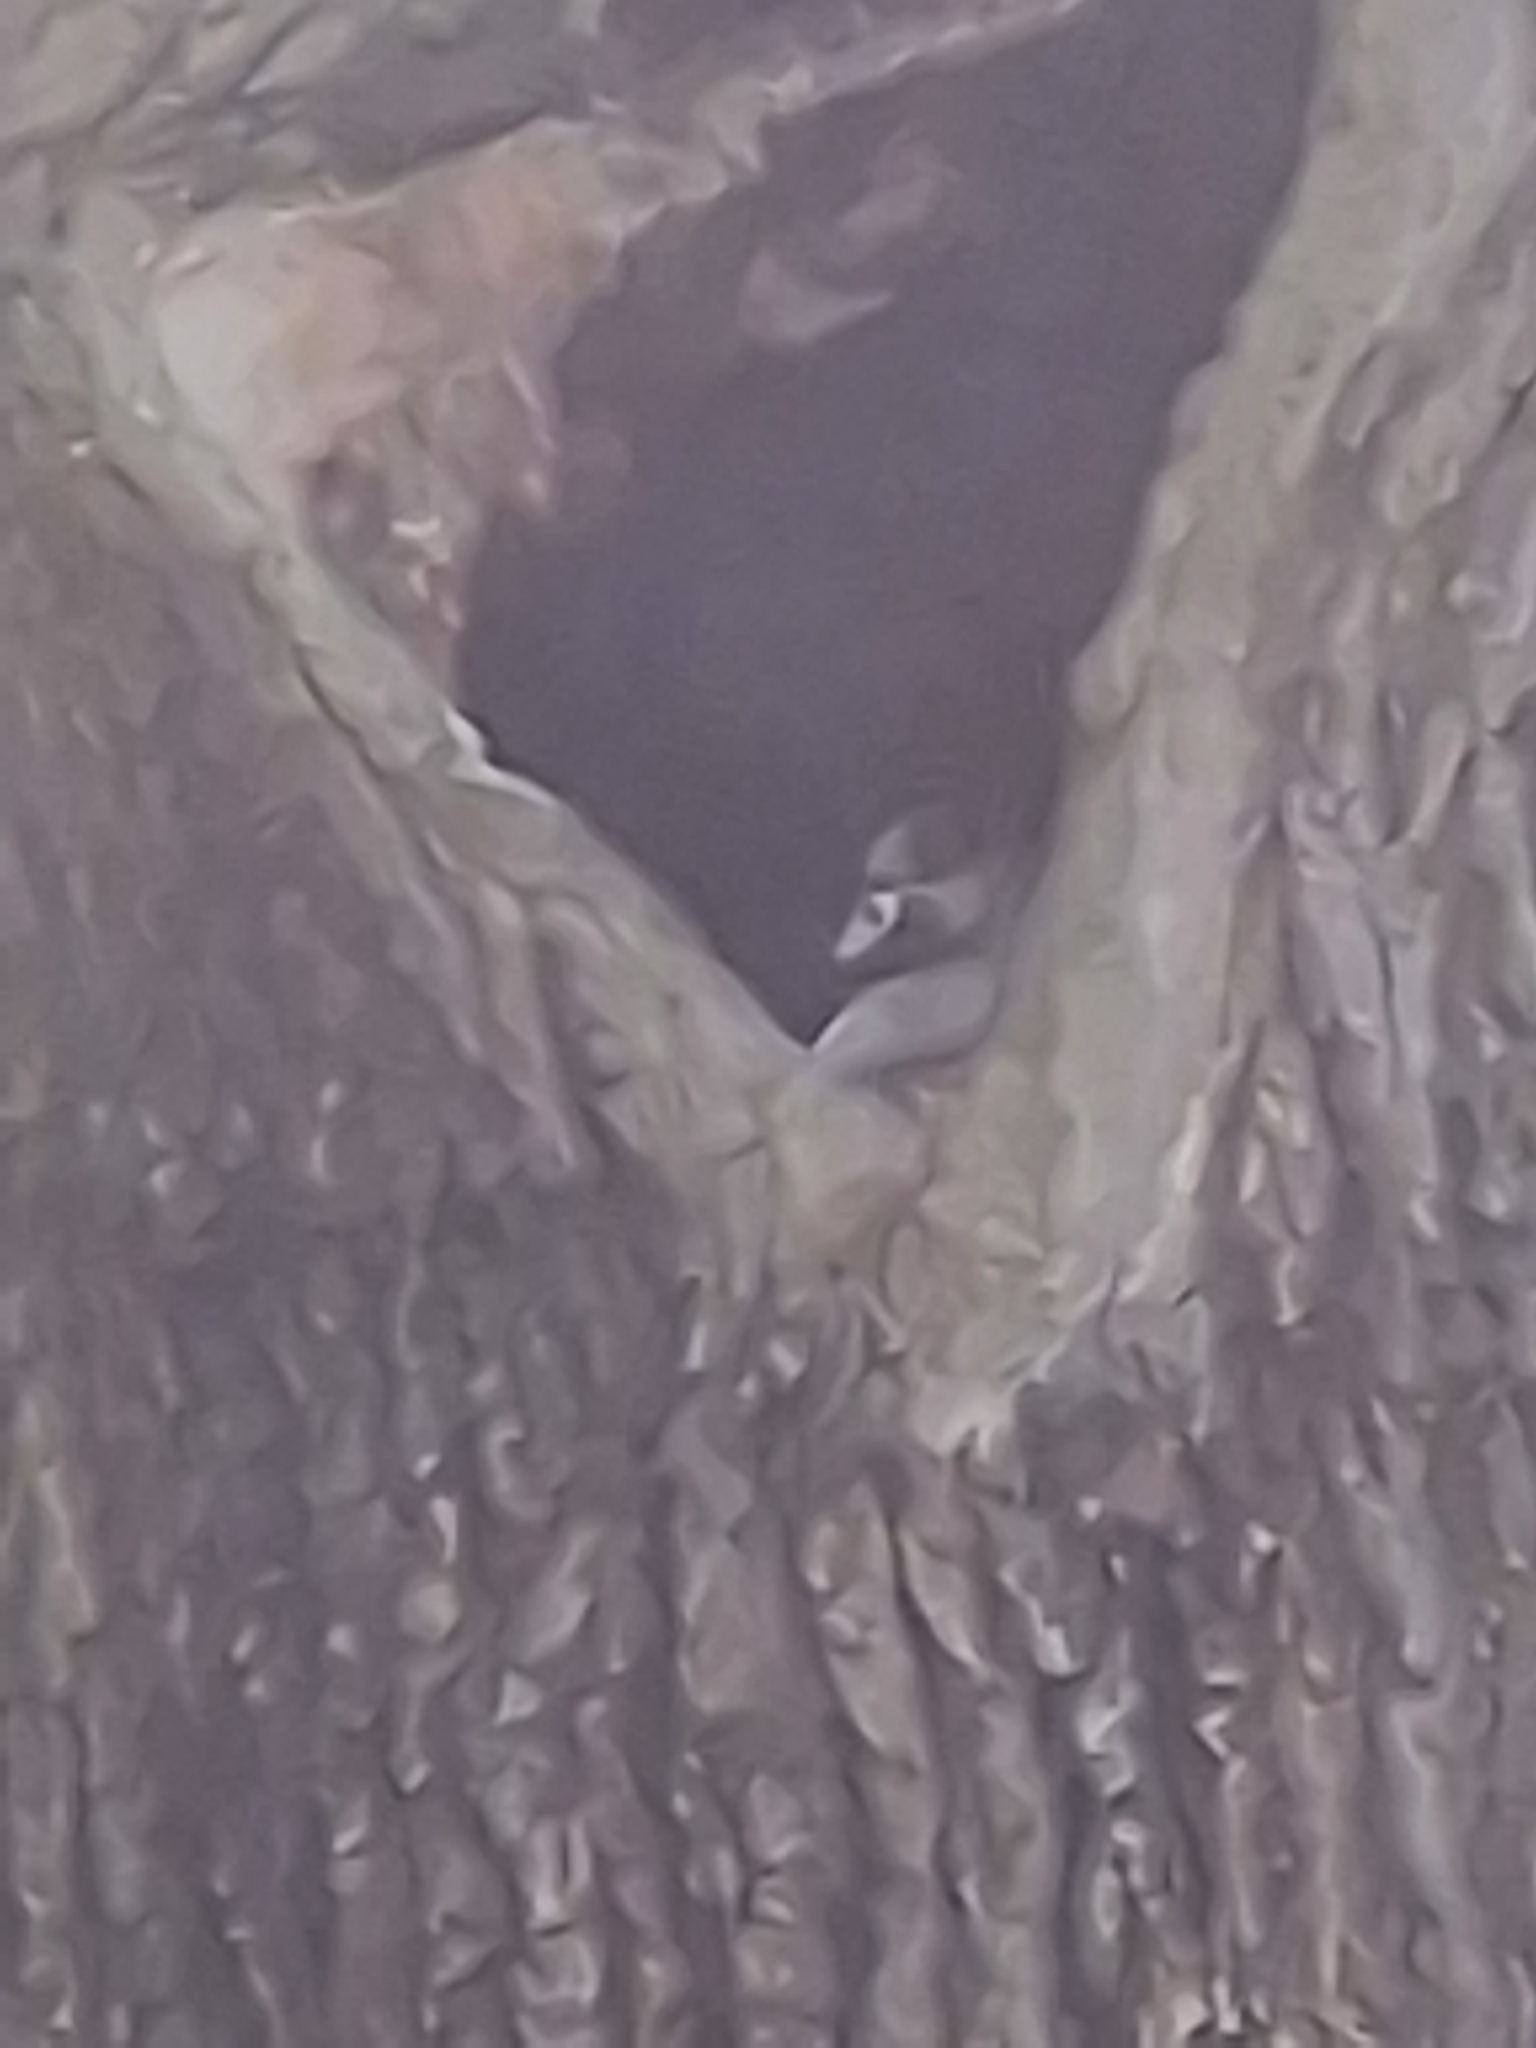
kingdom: Animalia
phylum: Chordata
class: Aves
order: Anseriformes
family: Anatidae
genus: Alopochen
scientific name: Alopochen aegyptiaca
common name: Egyptian goose
